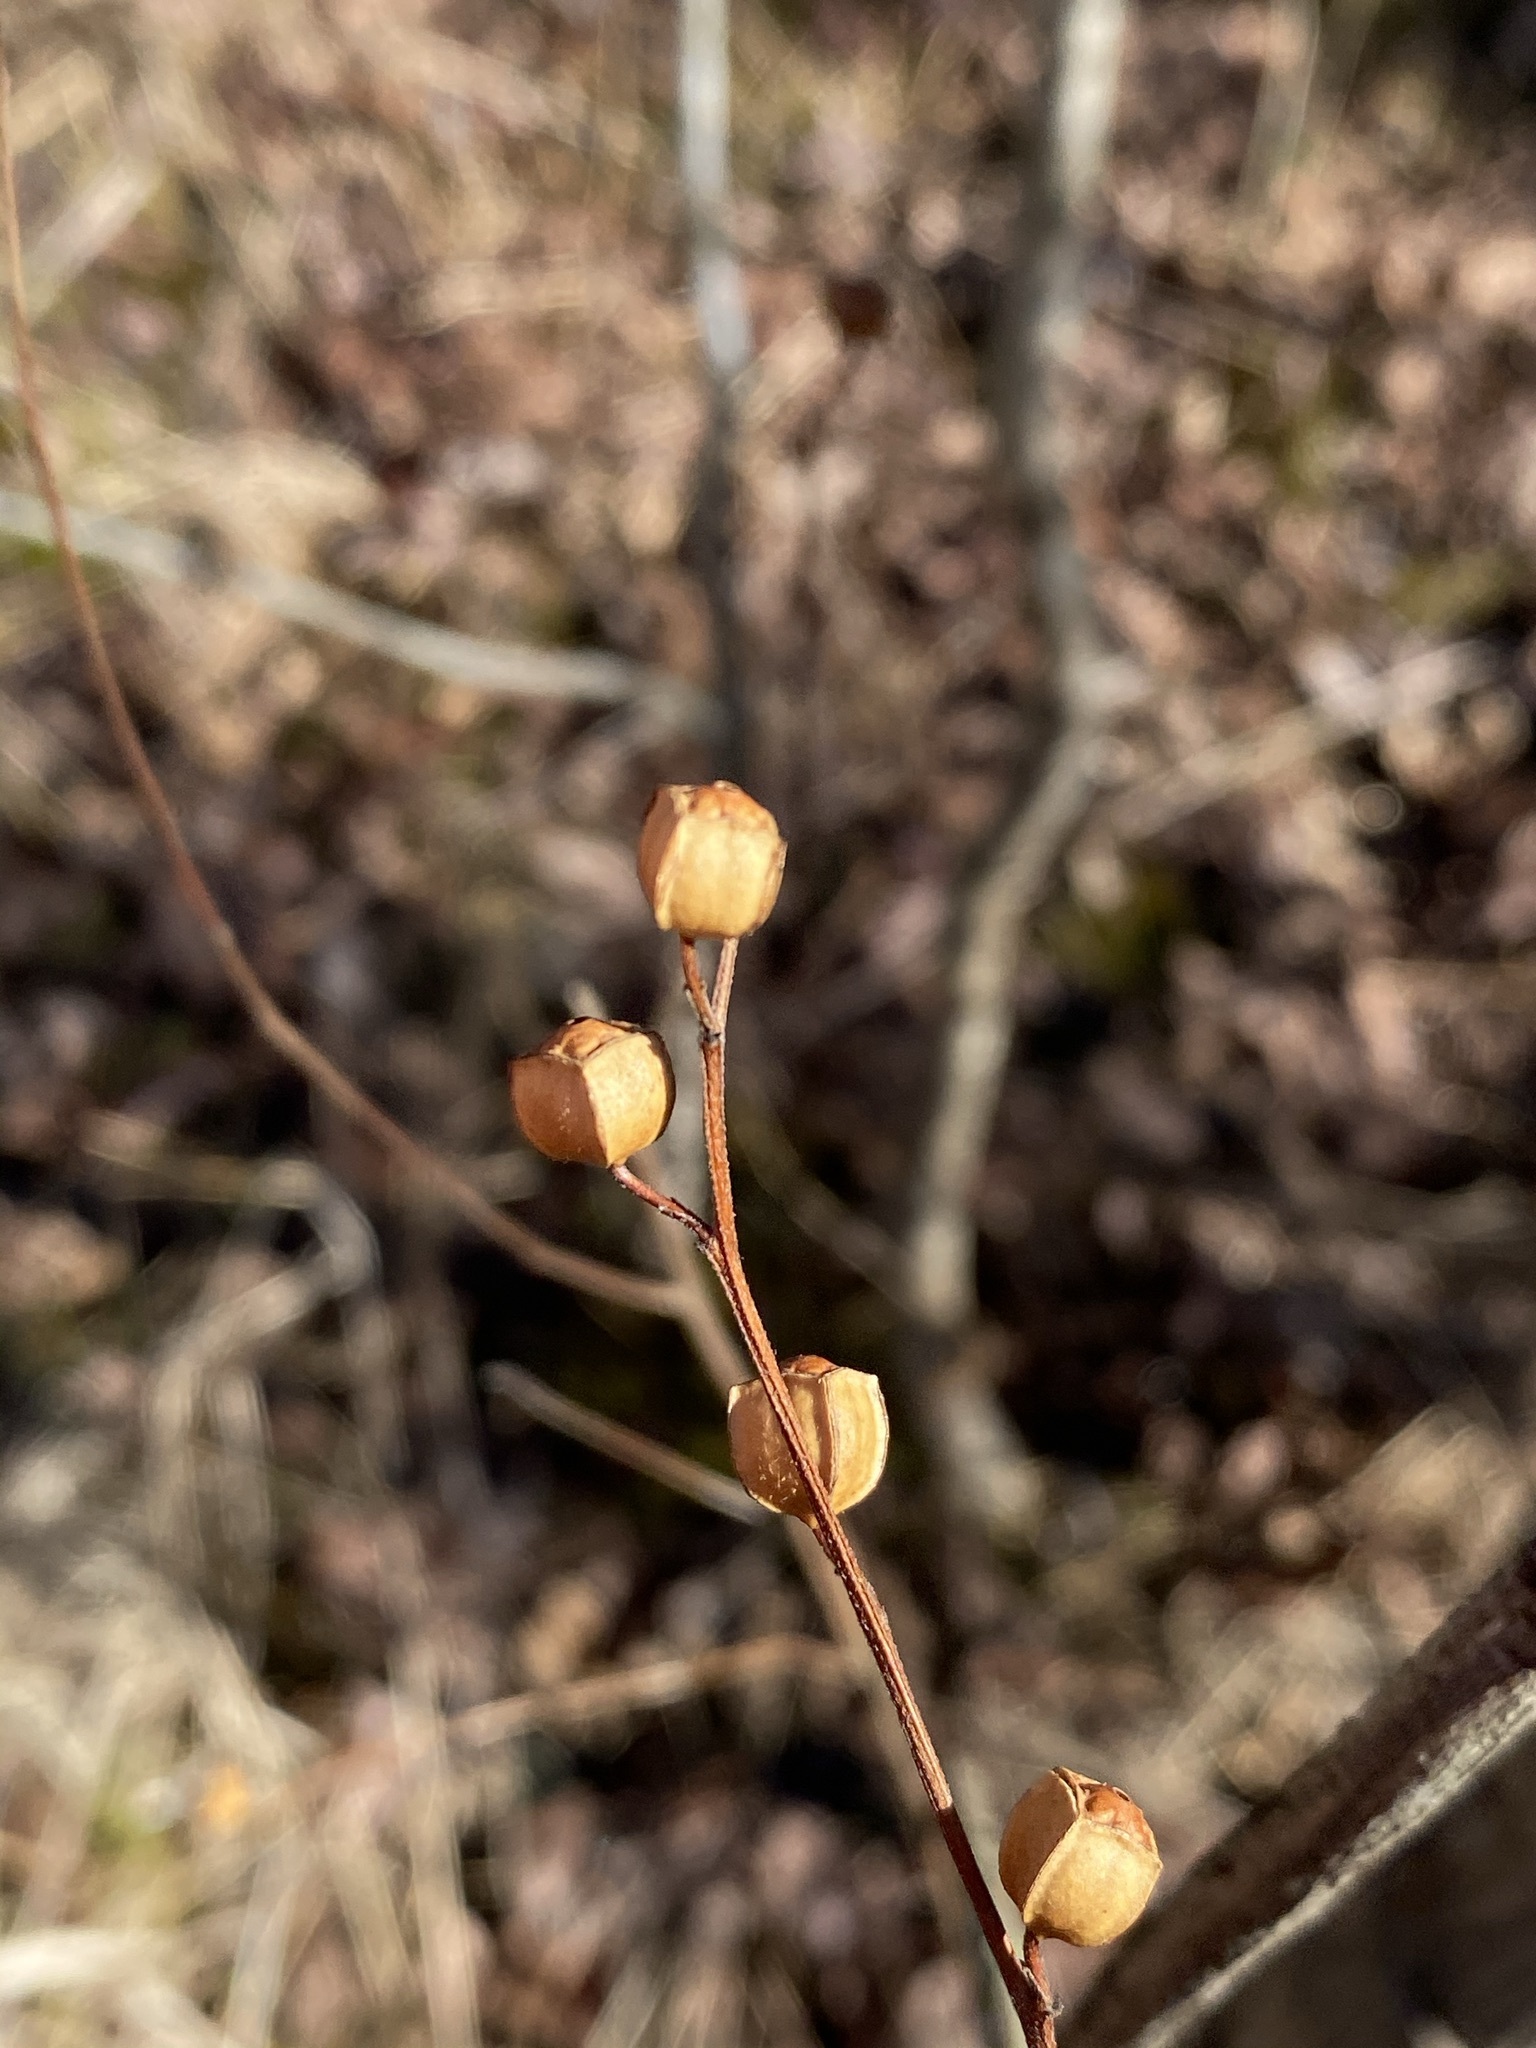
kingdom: Plantae
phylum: Tracheophyta
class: Magnoliopsida
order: Myrtales
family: Onagraceae
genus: Ludwigia
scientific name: Ludwigia alternifolia
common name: Rattlebox
